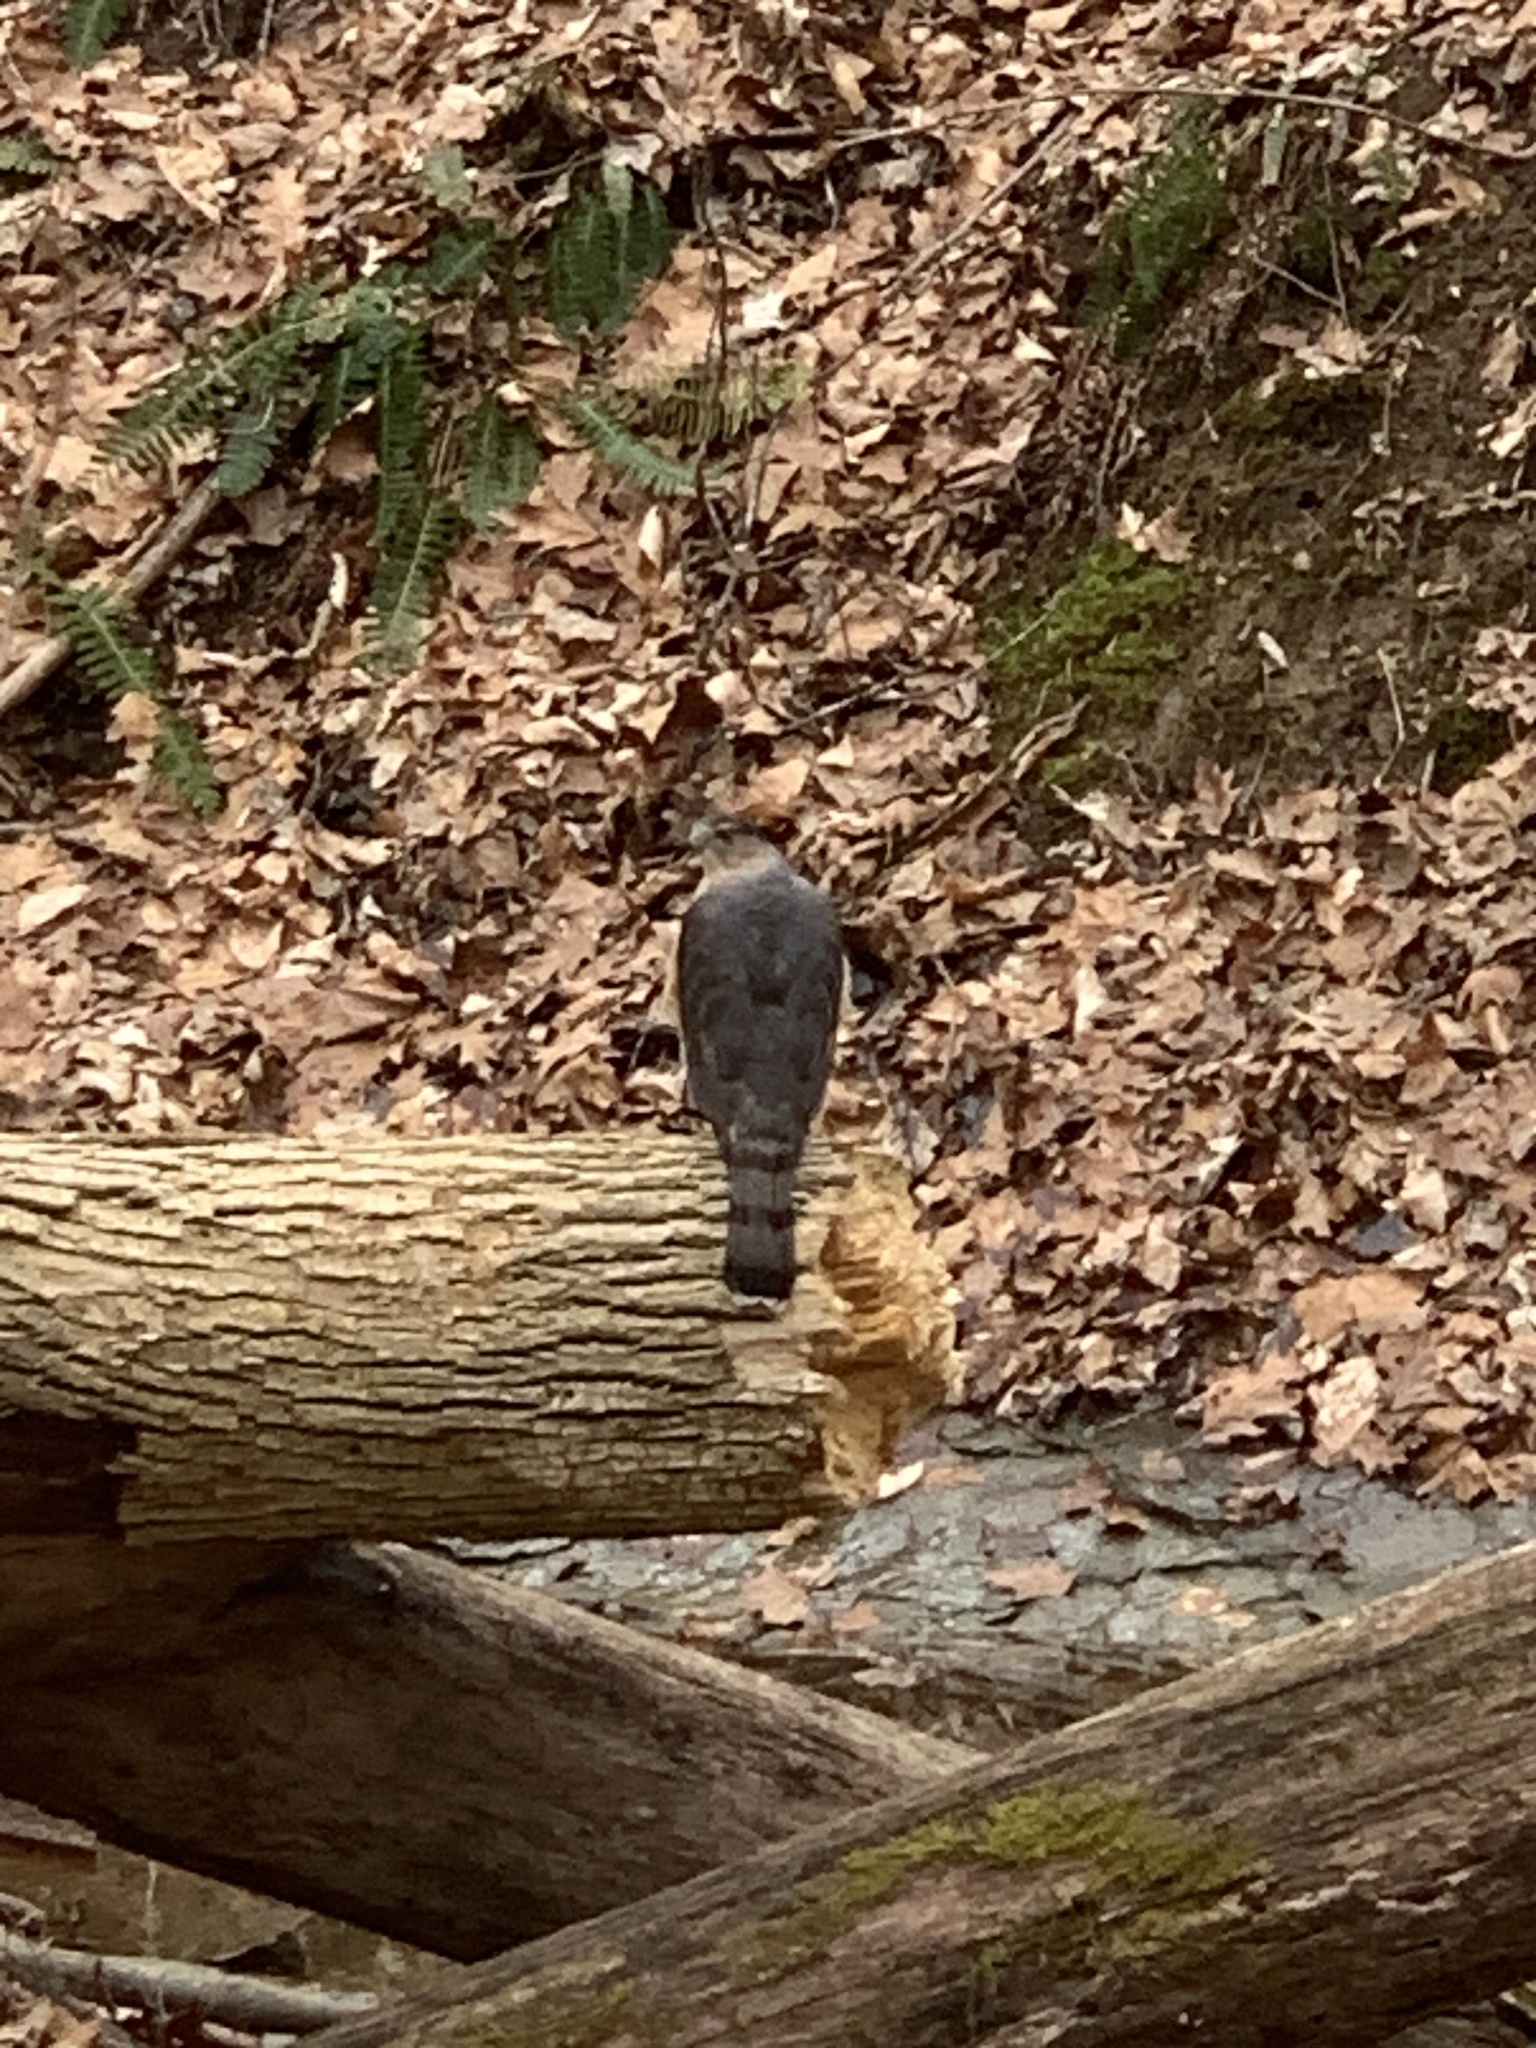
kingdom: Animalia
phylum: Chordata
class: Aves
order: Accipitriformes
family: Accipitridae
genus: Accipiter
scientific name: Accipiter cooperii
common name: Cooper's hawk
